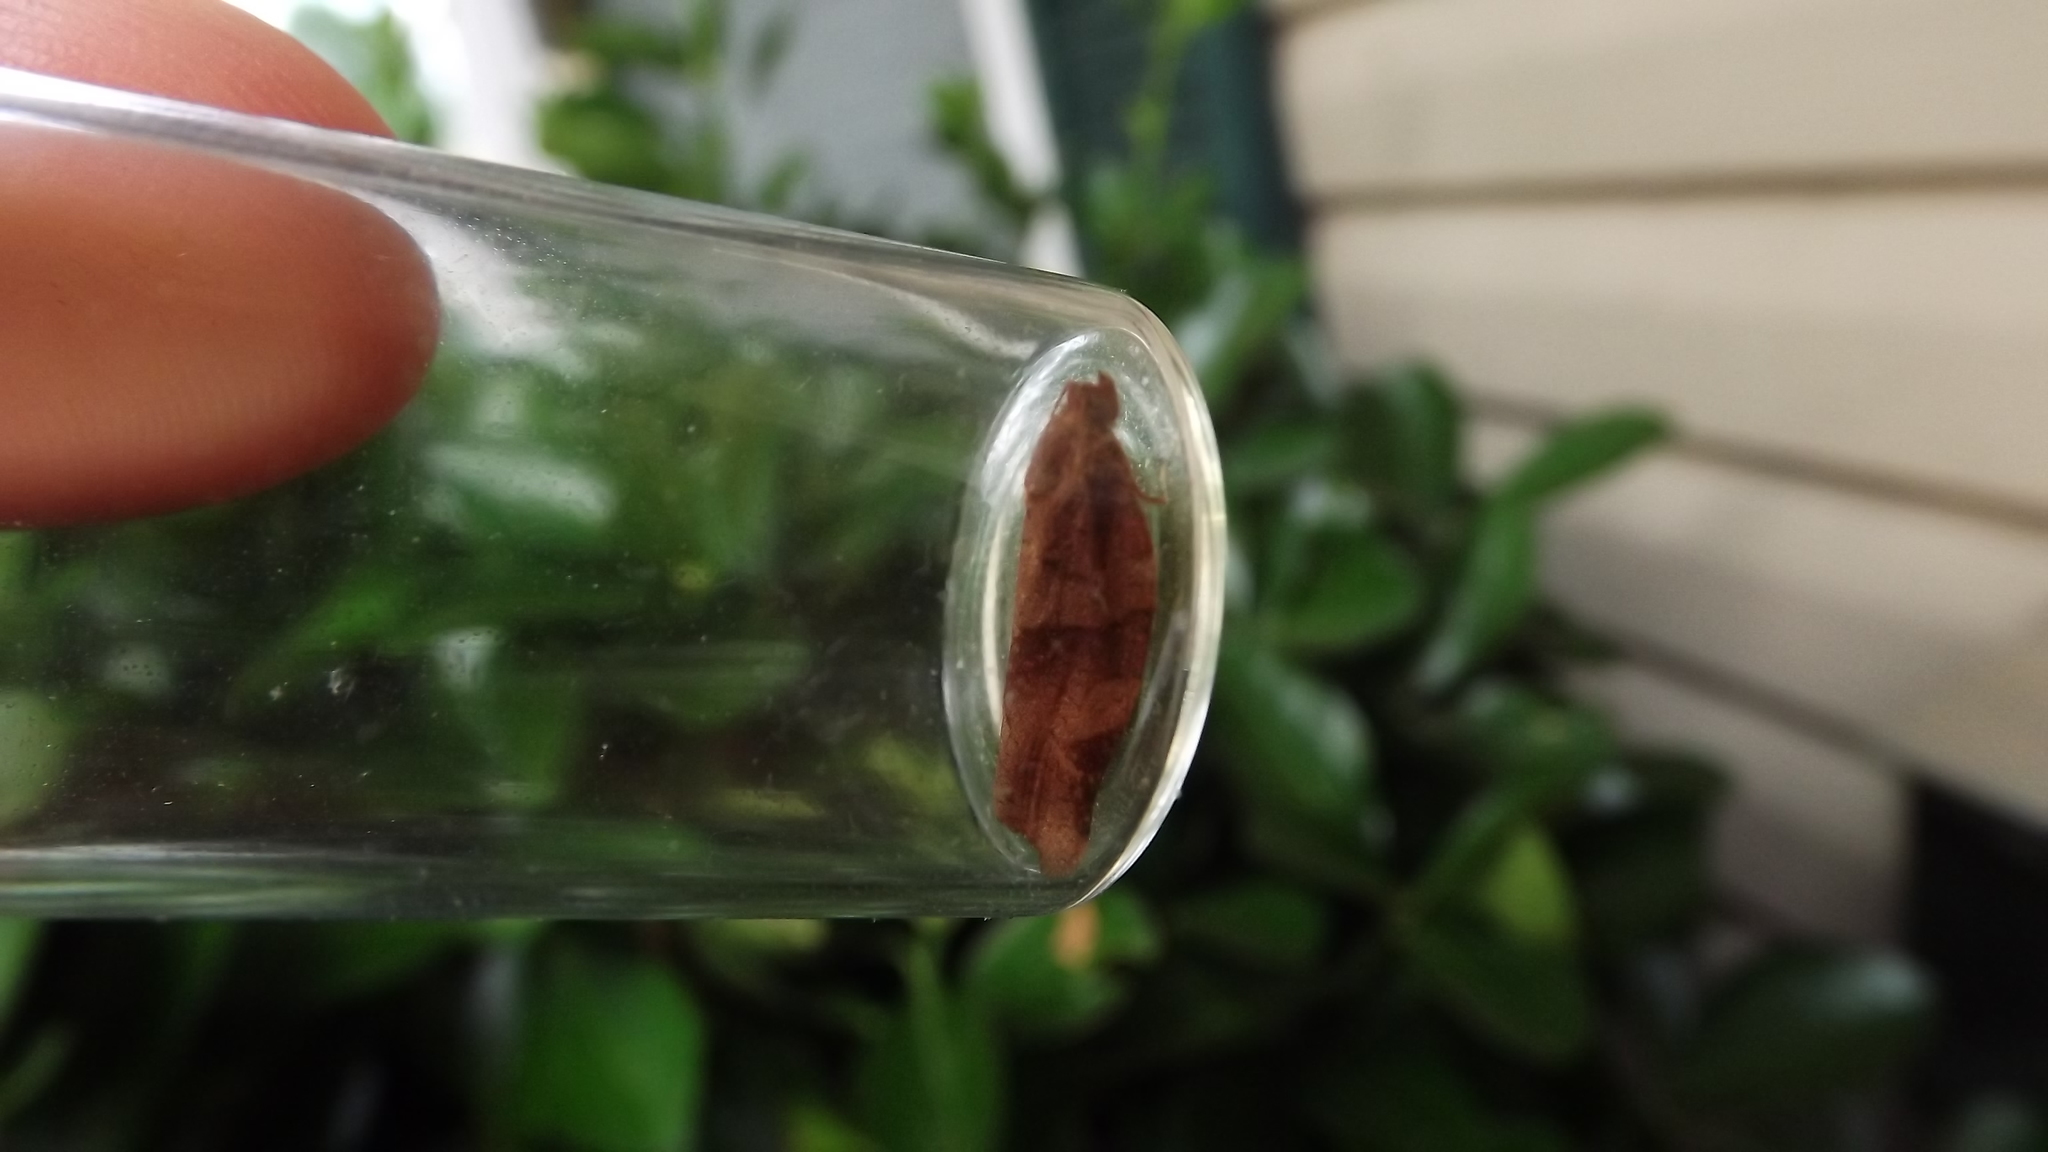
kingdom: Animalia
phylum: Arthropoda
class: Insecta
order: Lepidoptera
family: Tortricidae
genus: Choristoneura
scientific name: Choristoneura rosaceana
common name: Oblique-banded leafroller moth
